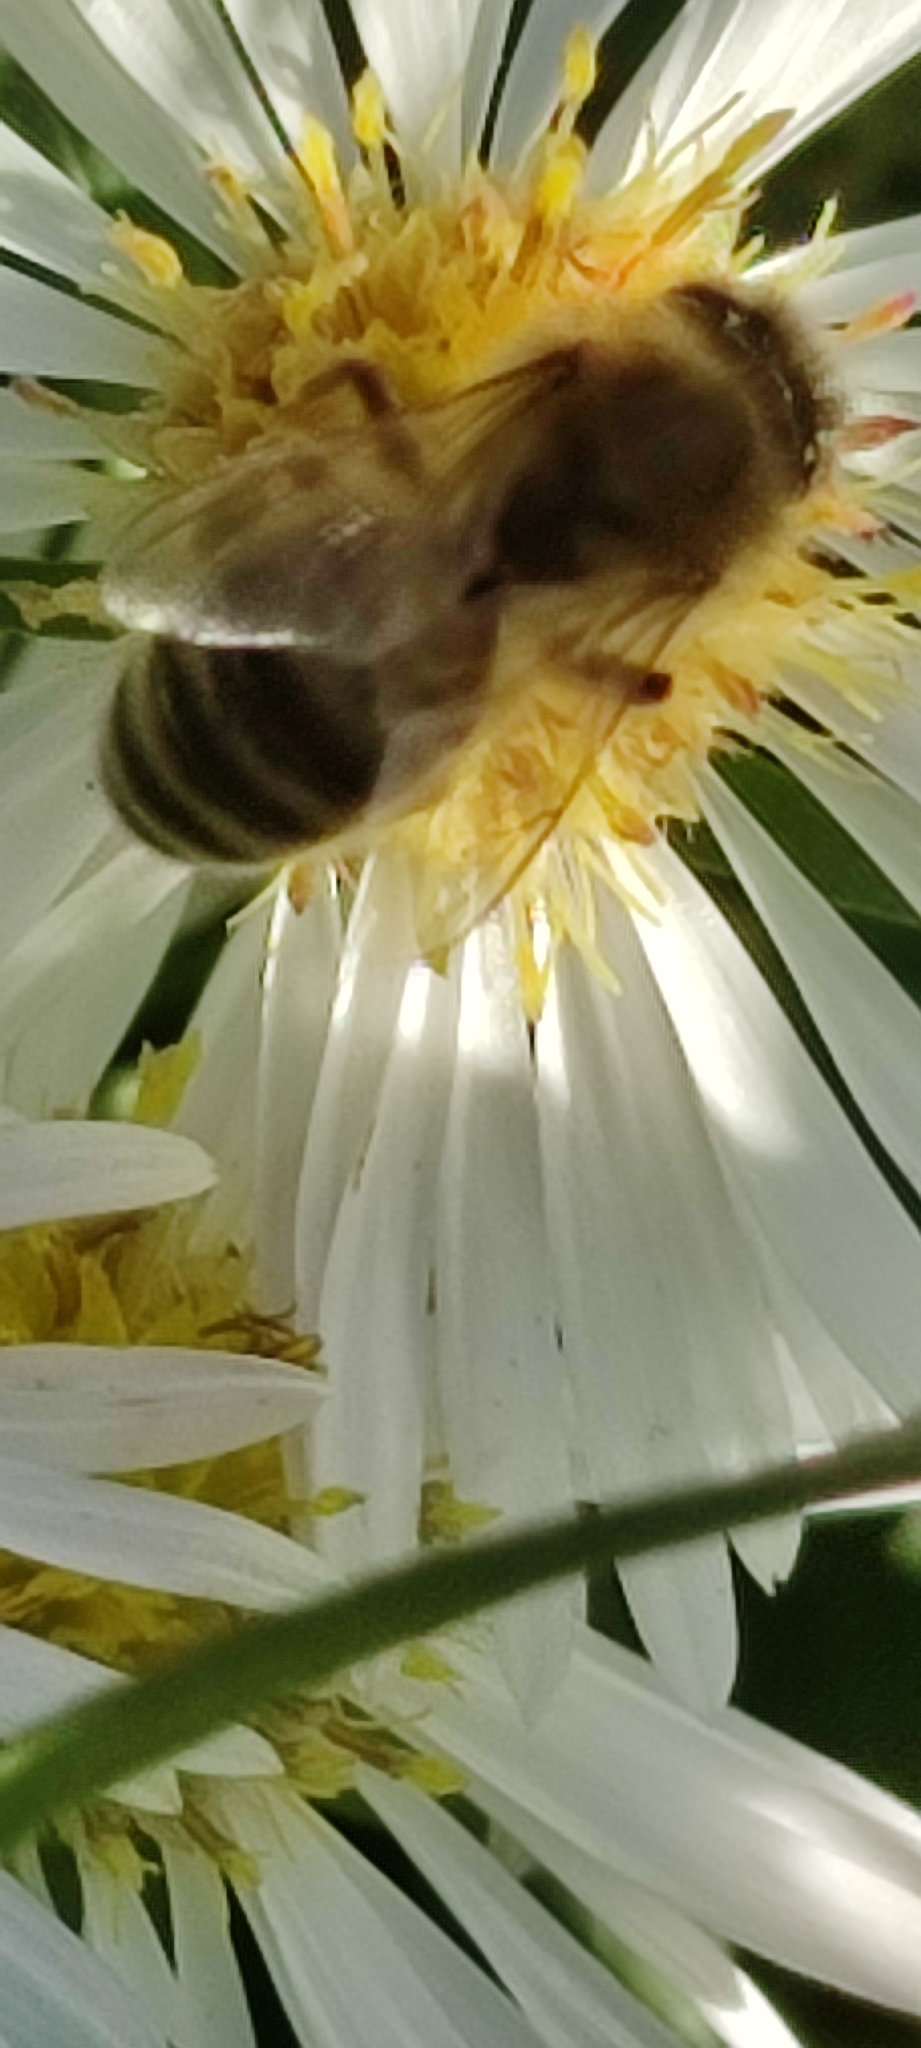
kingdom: Animalia
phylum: Arthropoda
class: Insecta
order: Hymenoptera
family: Apidae
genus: Apis
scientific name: Apis mellifera
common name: Honey bee
